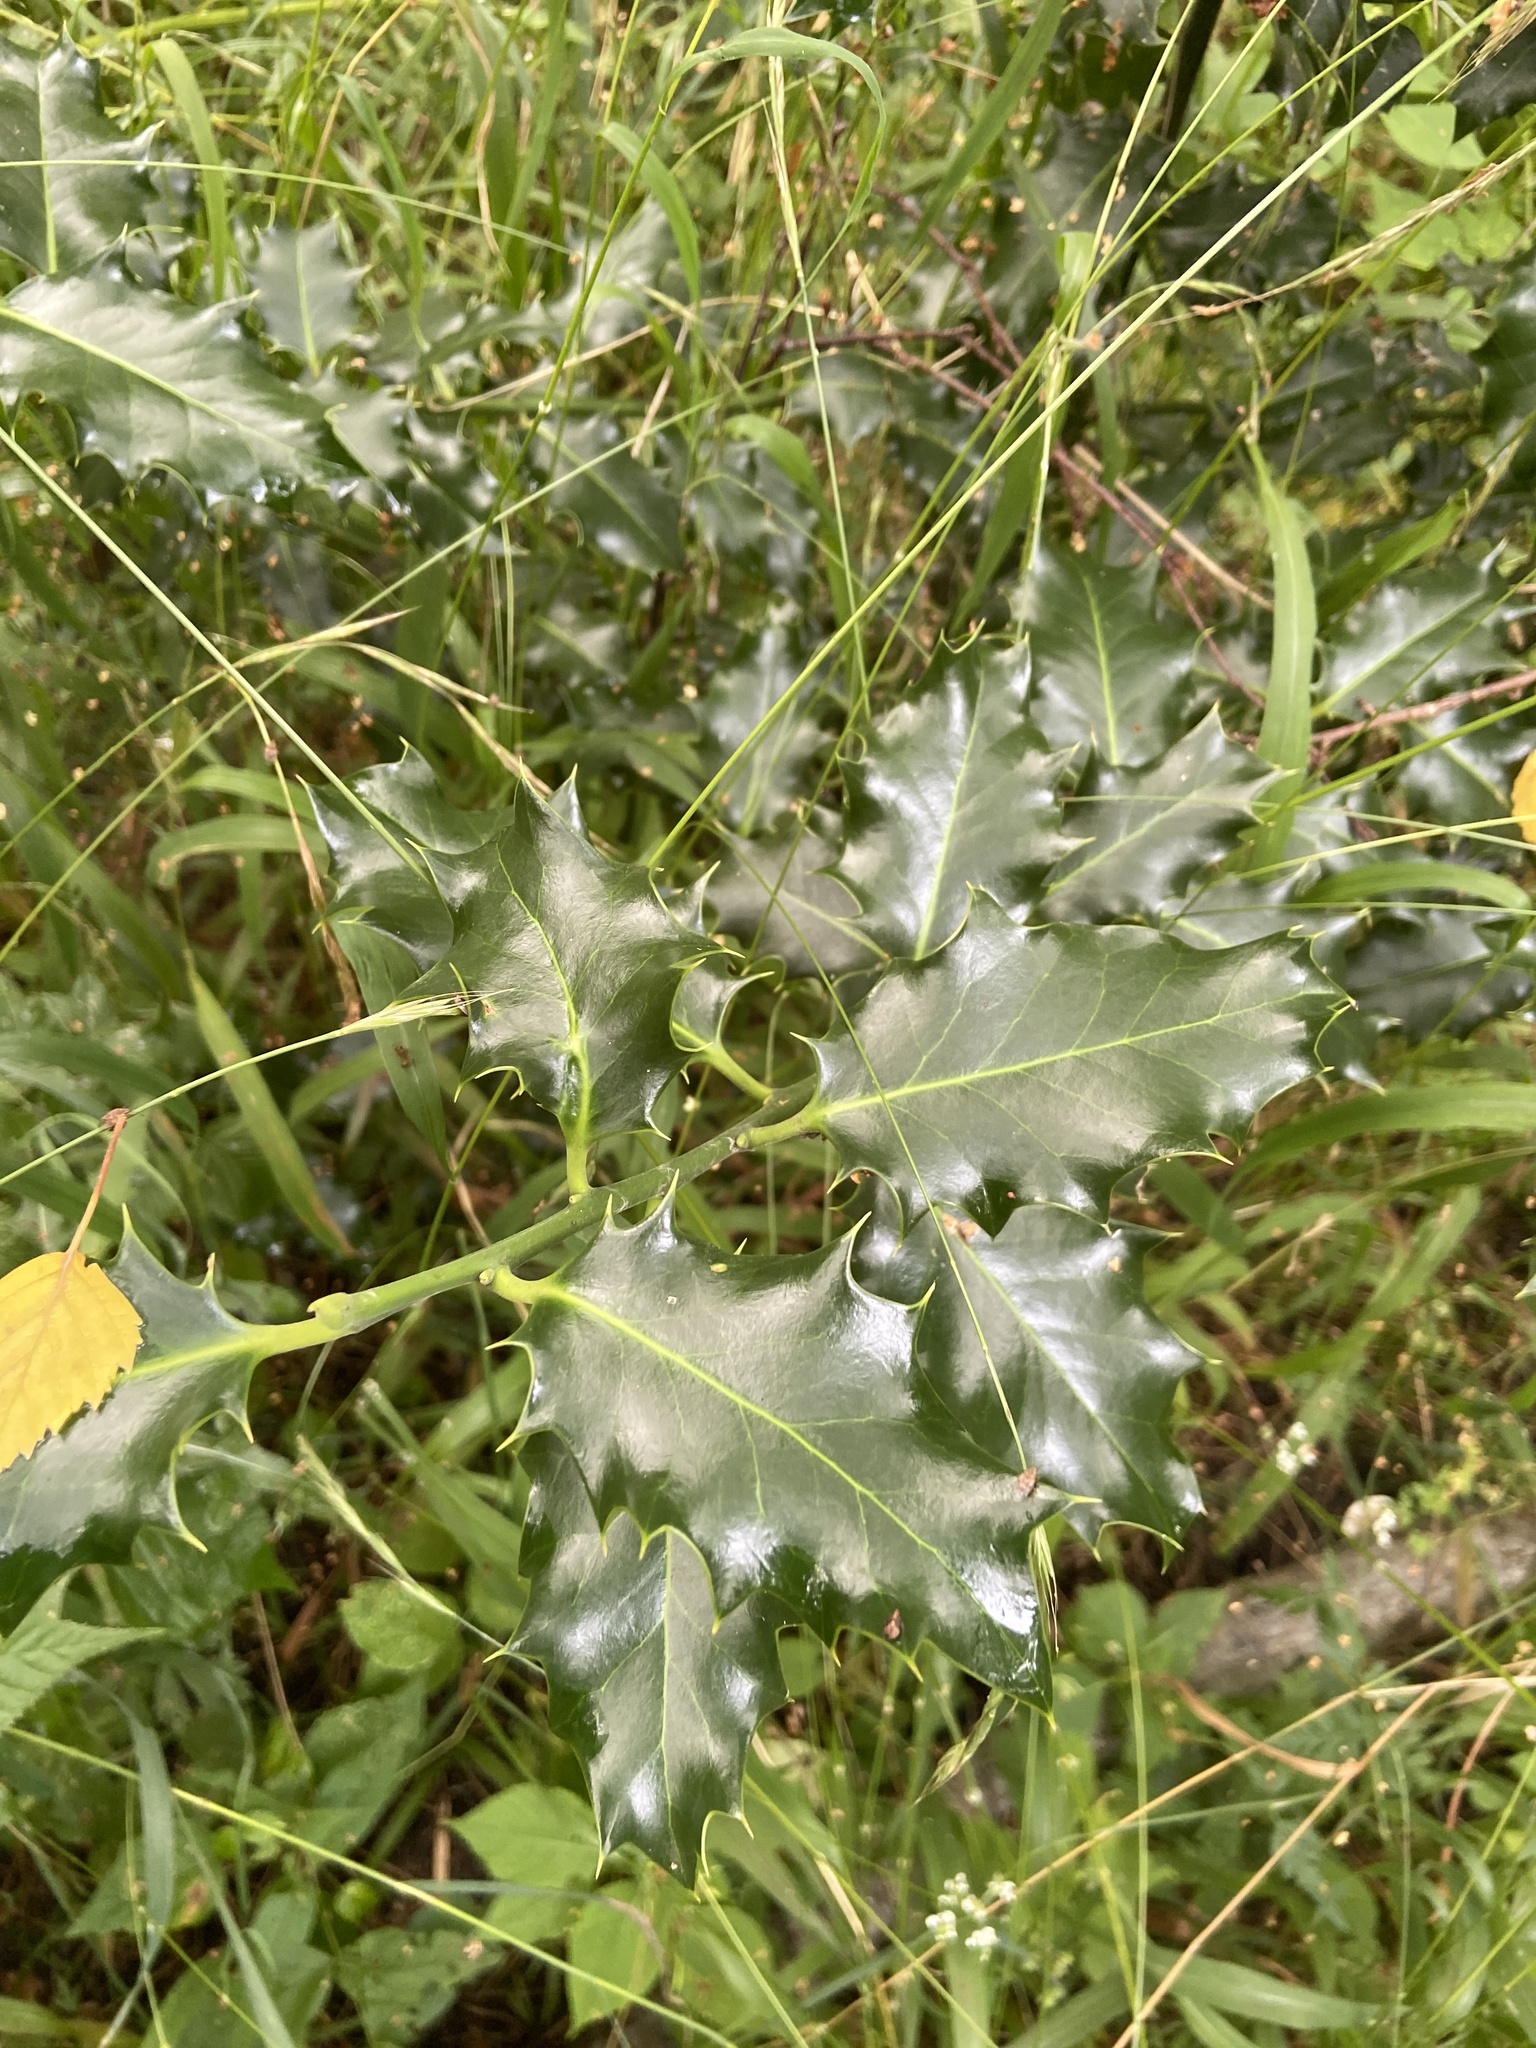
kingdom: Plantae
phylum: Tracheophyta
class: Magnoliopsida
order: Aquifoliales
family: Aquifoliaceae
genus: Ilex
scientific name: Ilex aquifolium
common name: English holly
